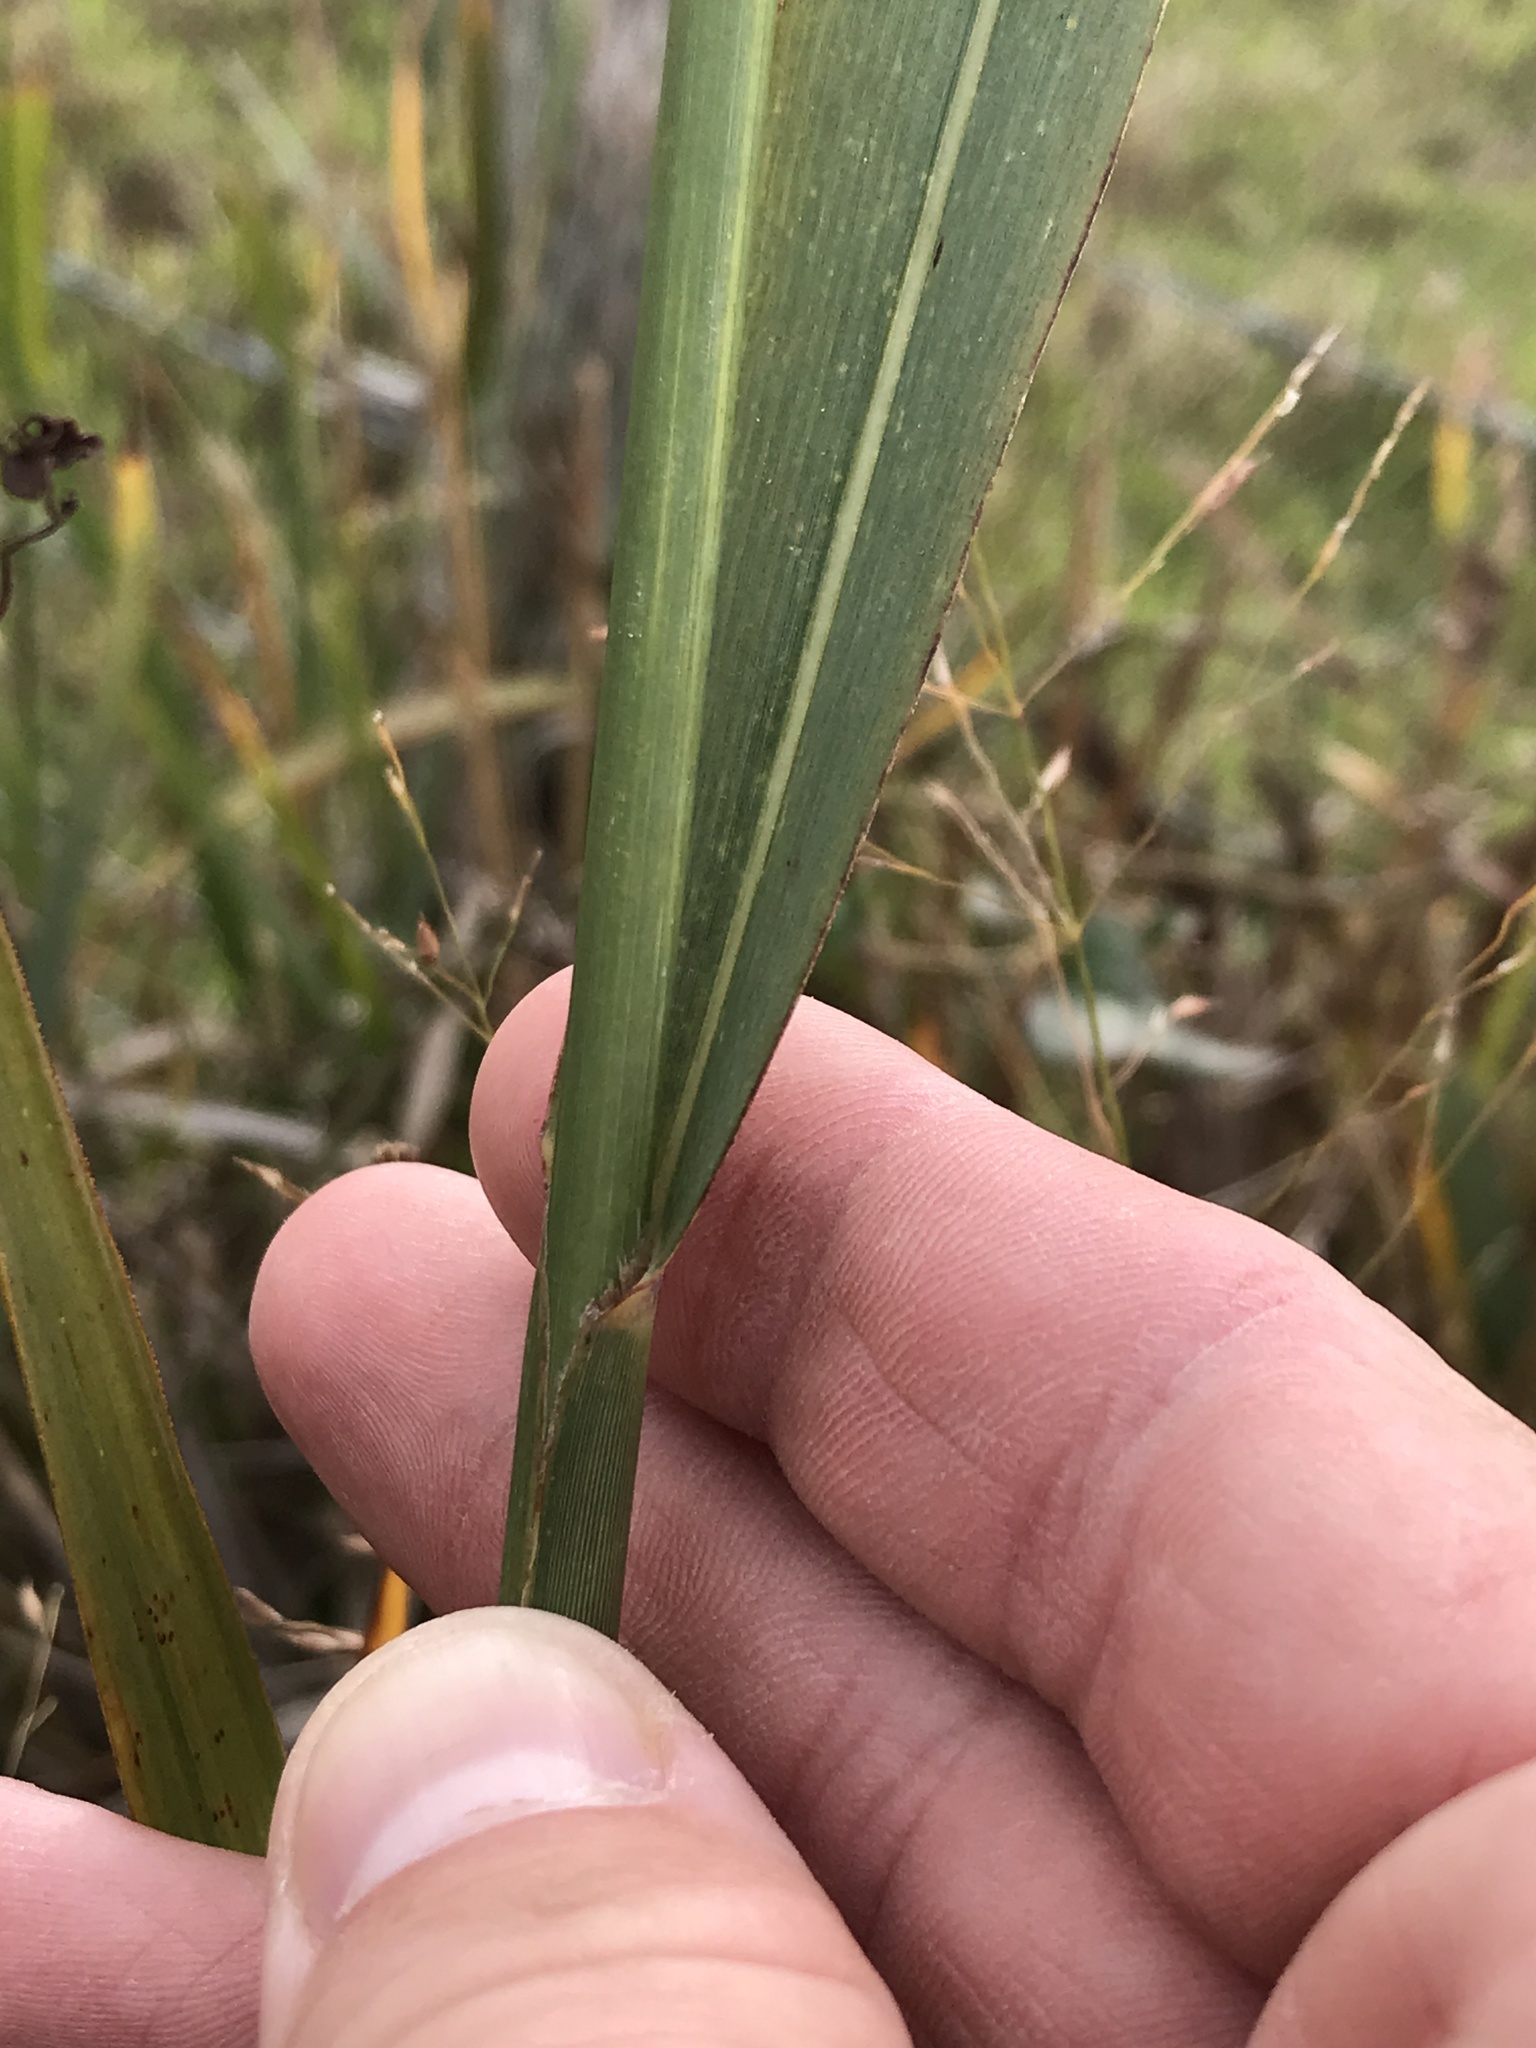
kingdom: Plantae
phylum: Tracheophyta
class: Liliopsida
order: Poales
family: Poaceae
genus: Panicum
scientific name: Panicum virgatum
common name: Switchgrass
